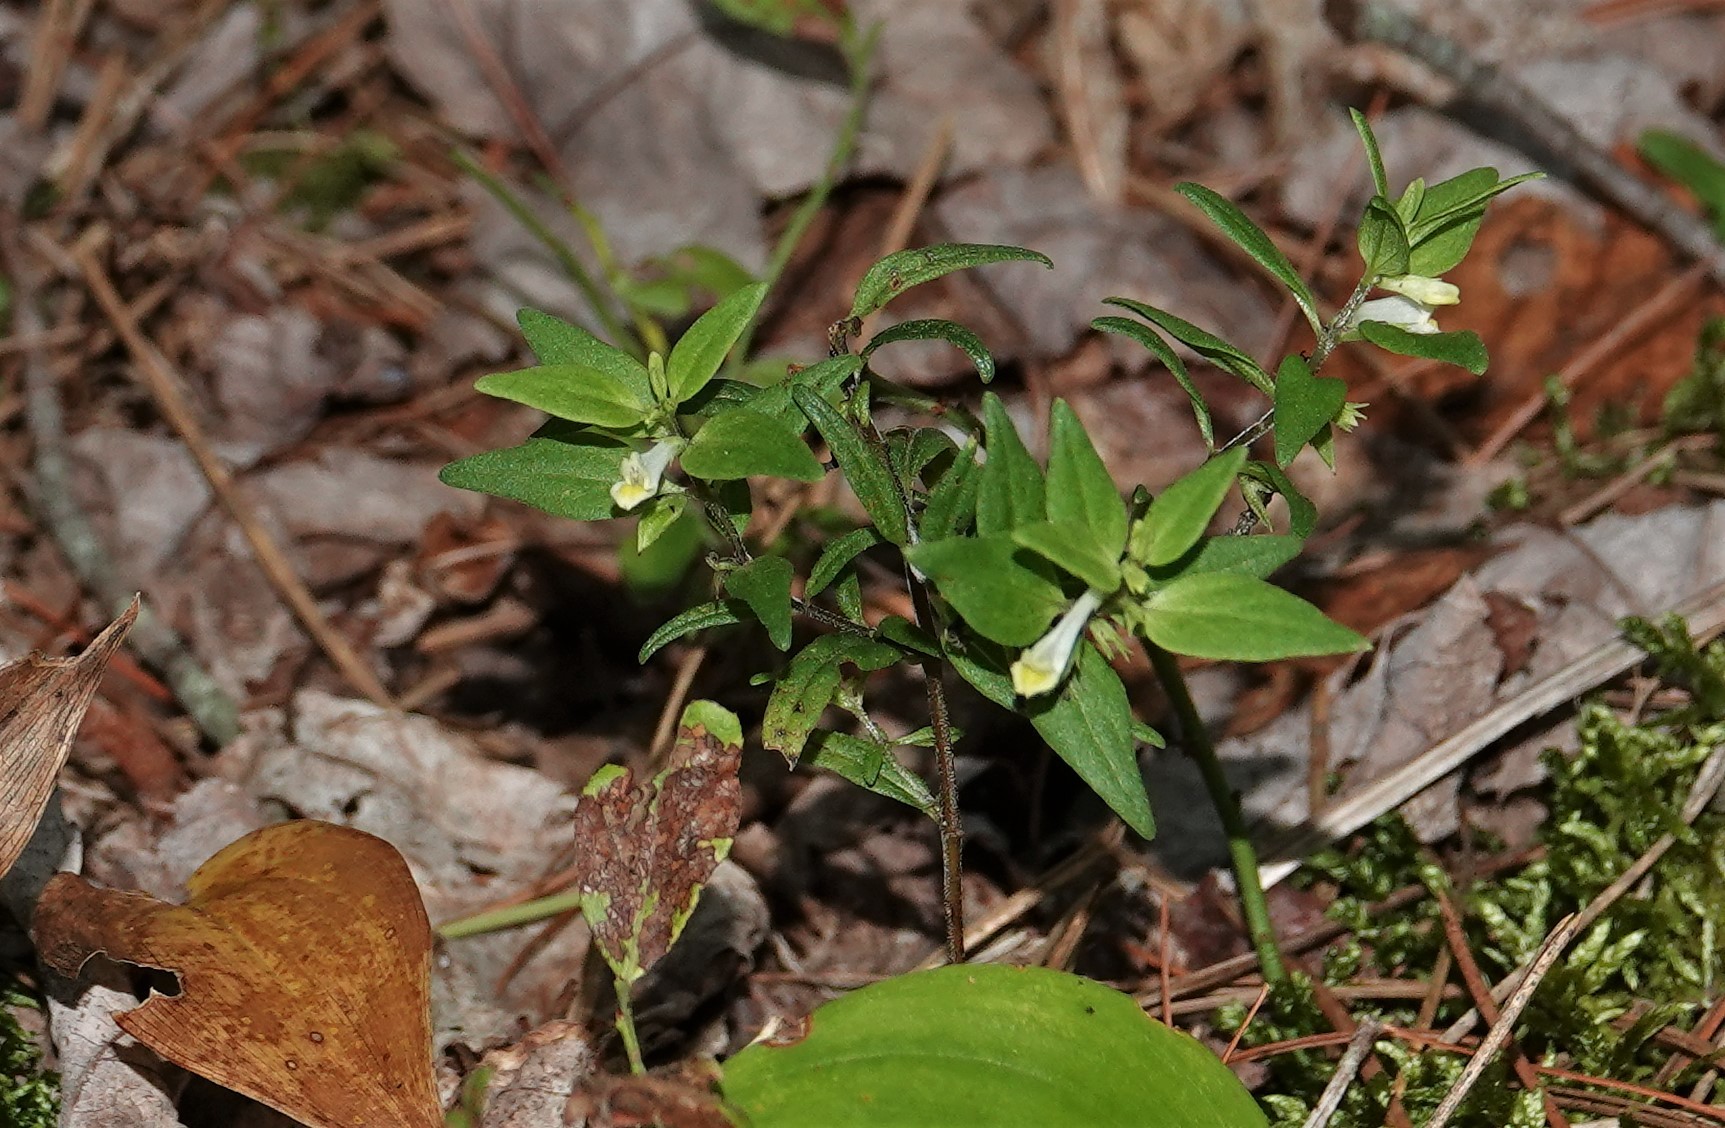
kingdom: Plantae
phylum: Tracheophyta
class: Magnoliopsida
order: Lamiales
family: Orobanchaceae
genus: Melampyrum
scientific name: Melampyrum lineare
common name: American cow-wheat
